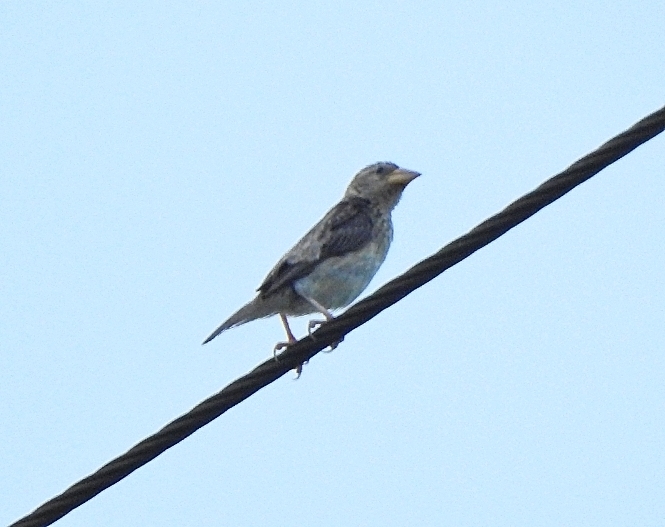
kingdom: Animalia
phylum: Chordata
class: Aves
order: Passeriformes
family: Ploceidae
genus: Ploceus
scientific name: Ploceus philippinus
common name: Baya weaver
